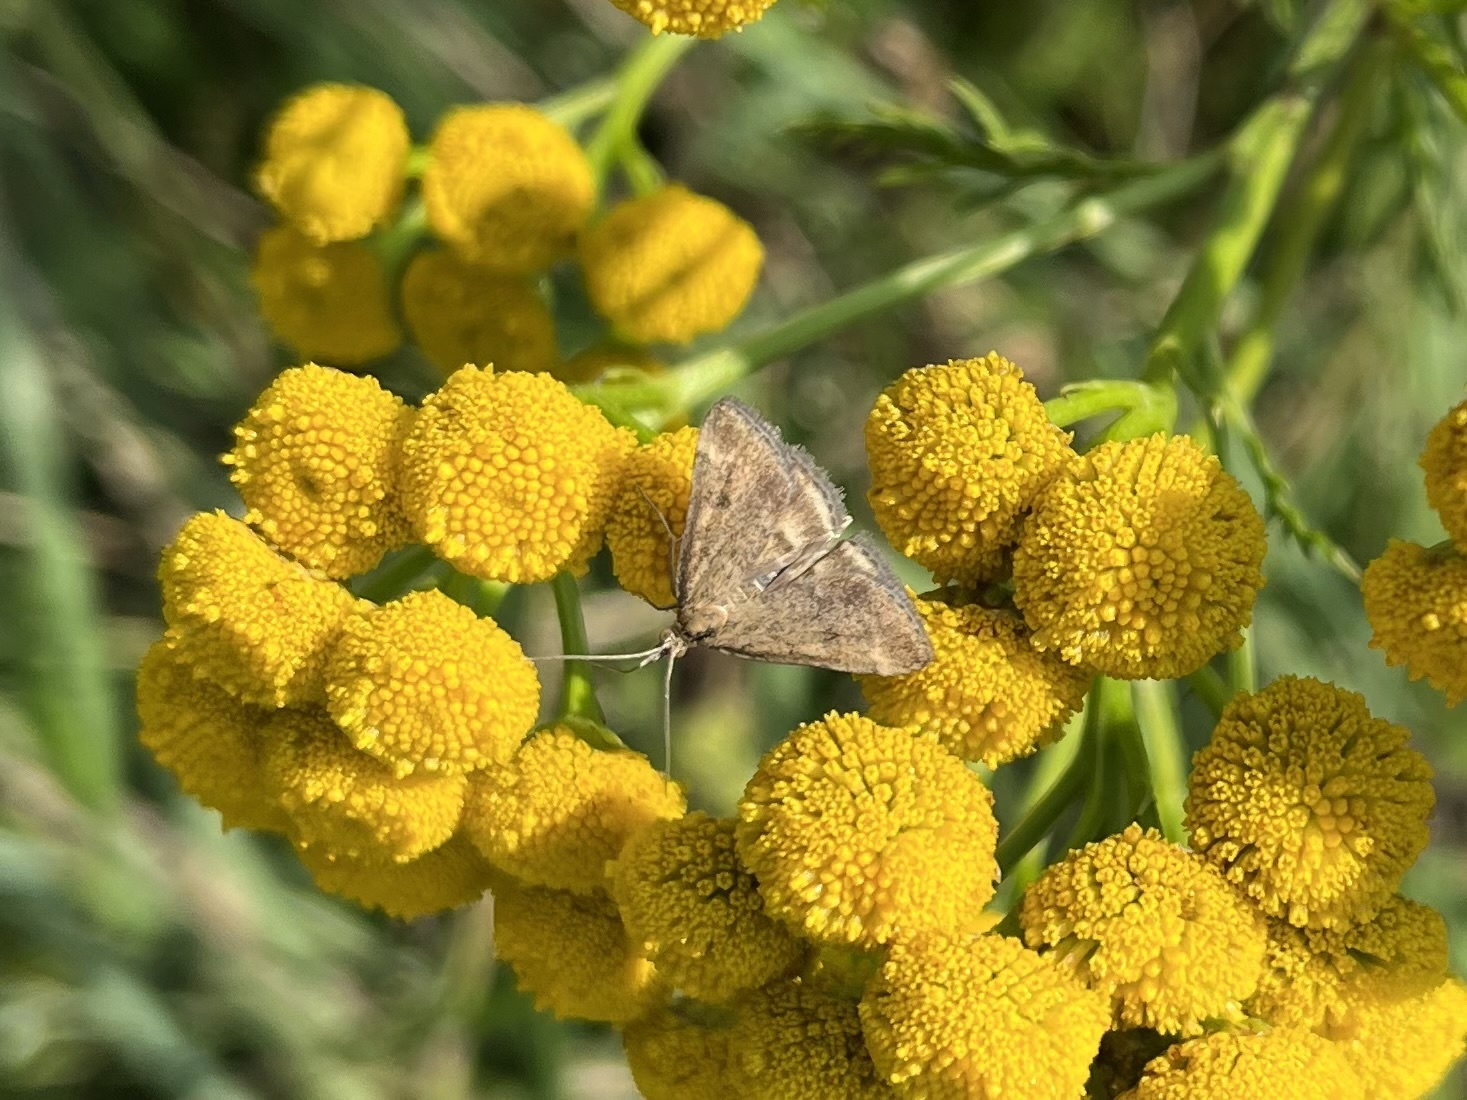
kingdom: Animalia
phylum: Arthropoda
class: Insecta
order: Lepidoptera
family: Crambidae
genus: Pyrausta
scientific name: Pyrausta despicata
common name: Straw-barred pearl
